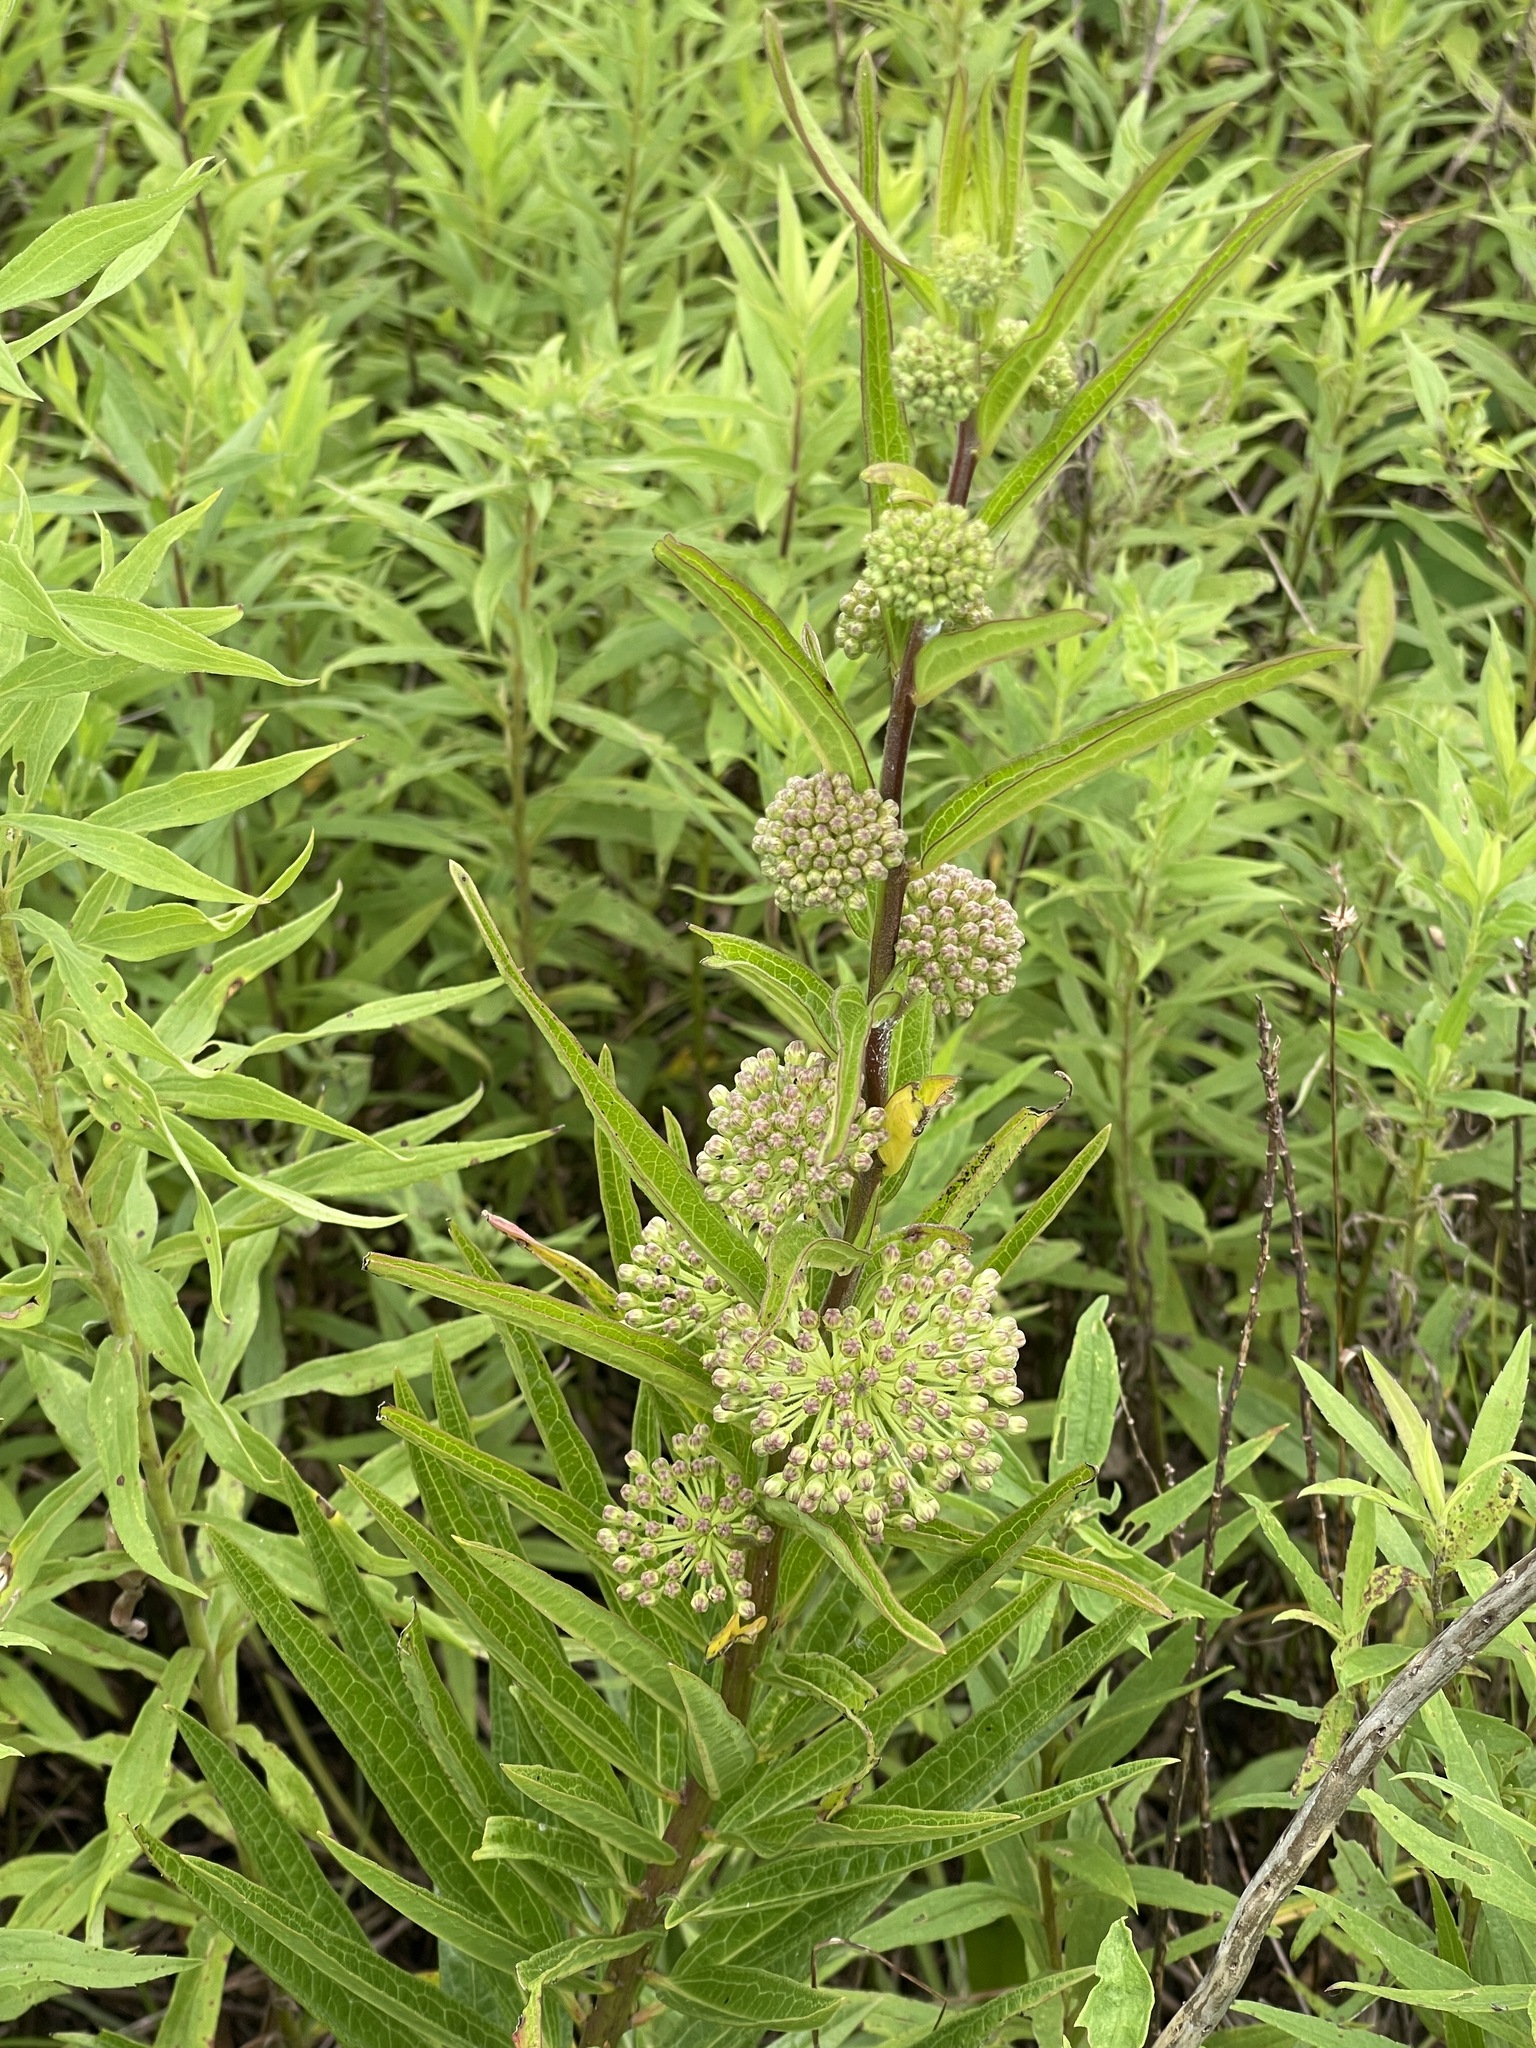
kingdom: Plantae
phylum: Tracheophyta
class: Magnoliopsida
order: Gentianales
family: Apocynaceae
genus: Asclepias
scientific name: Asclepias hirtella
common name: Prairie milkweed
